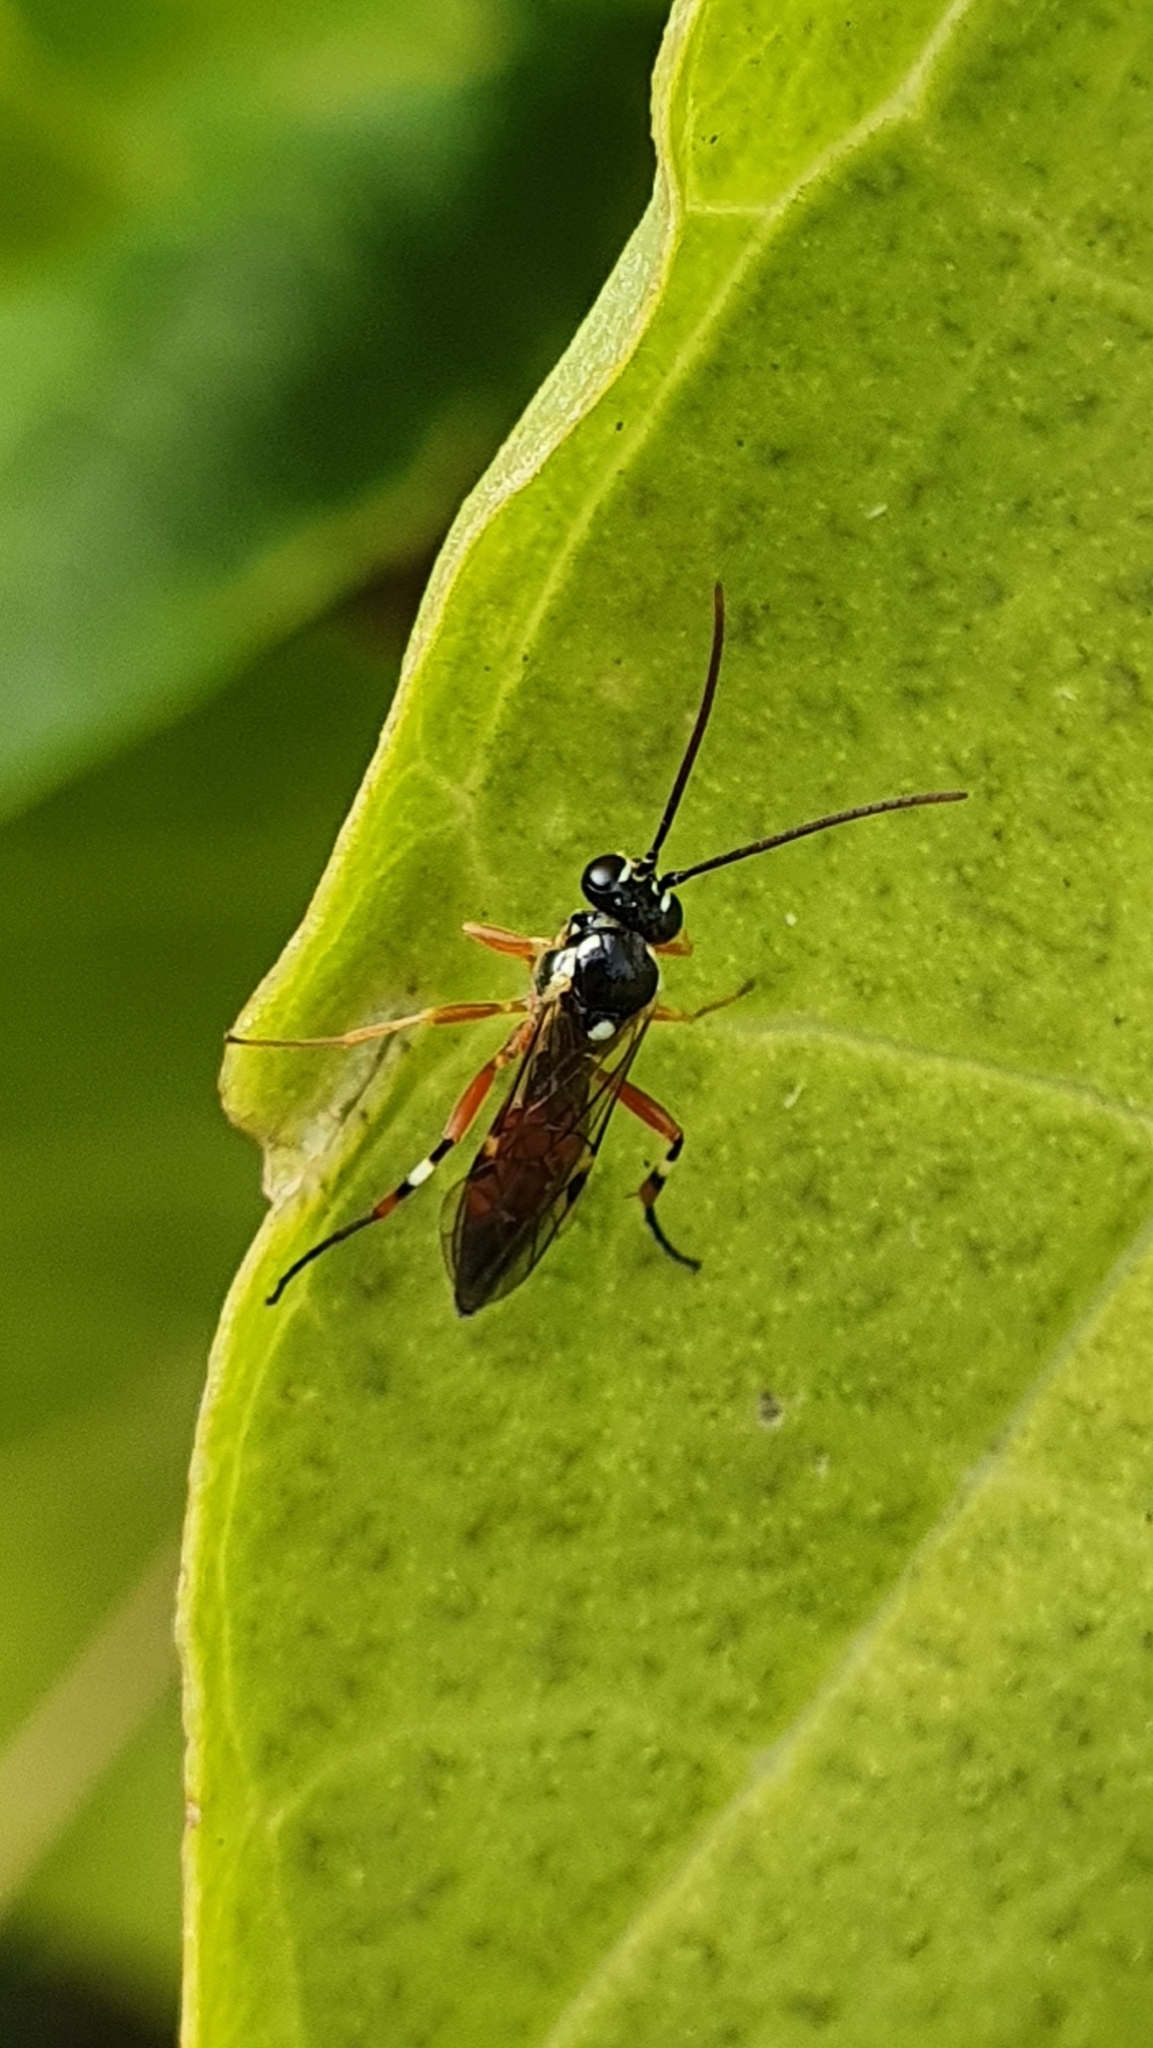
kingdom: Animalia
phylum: Arthropoda
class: Insecta
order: Hymenoptera
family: Ichneumonidae
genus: Diplazon
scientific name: Diplazon laetatorius
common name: Parasitoid wasp
